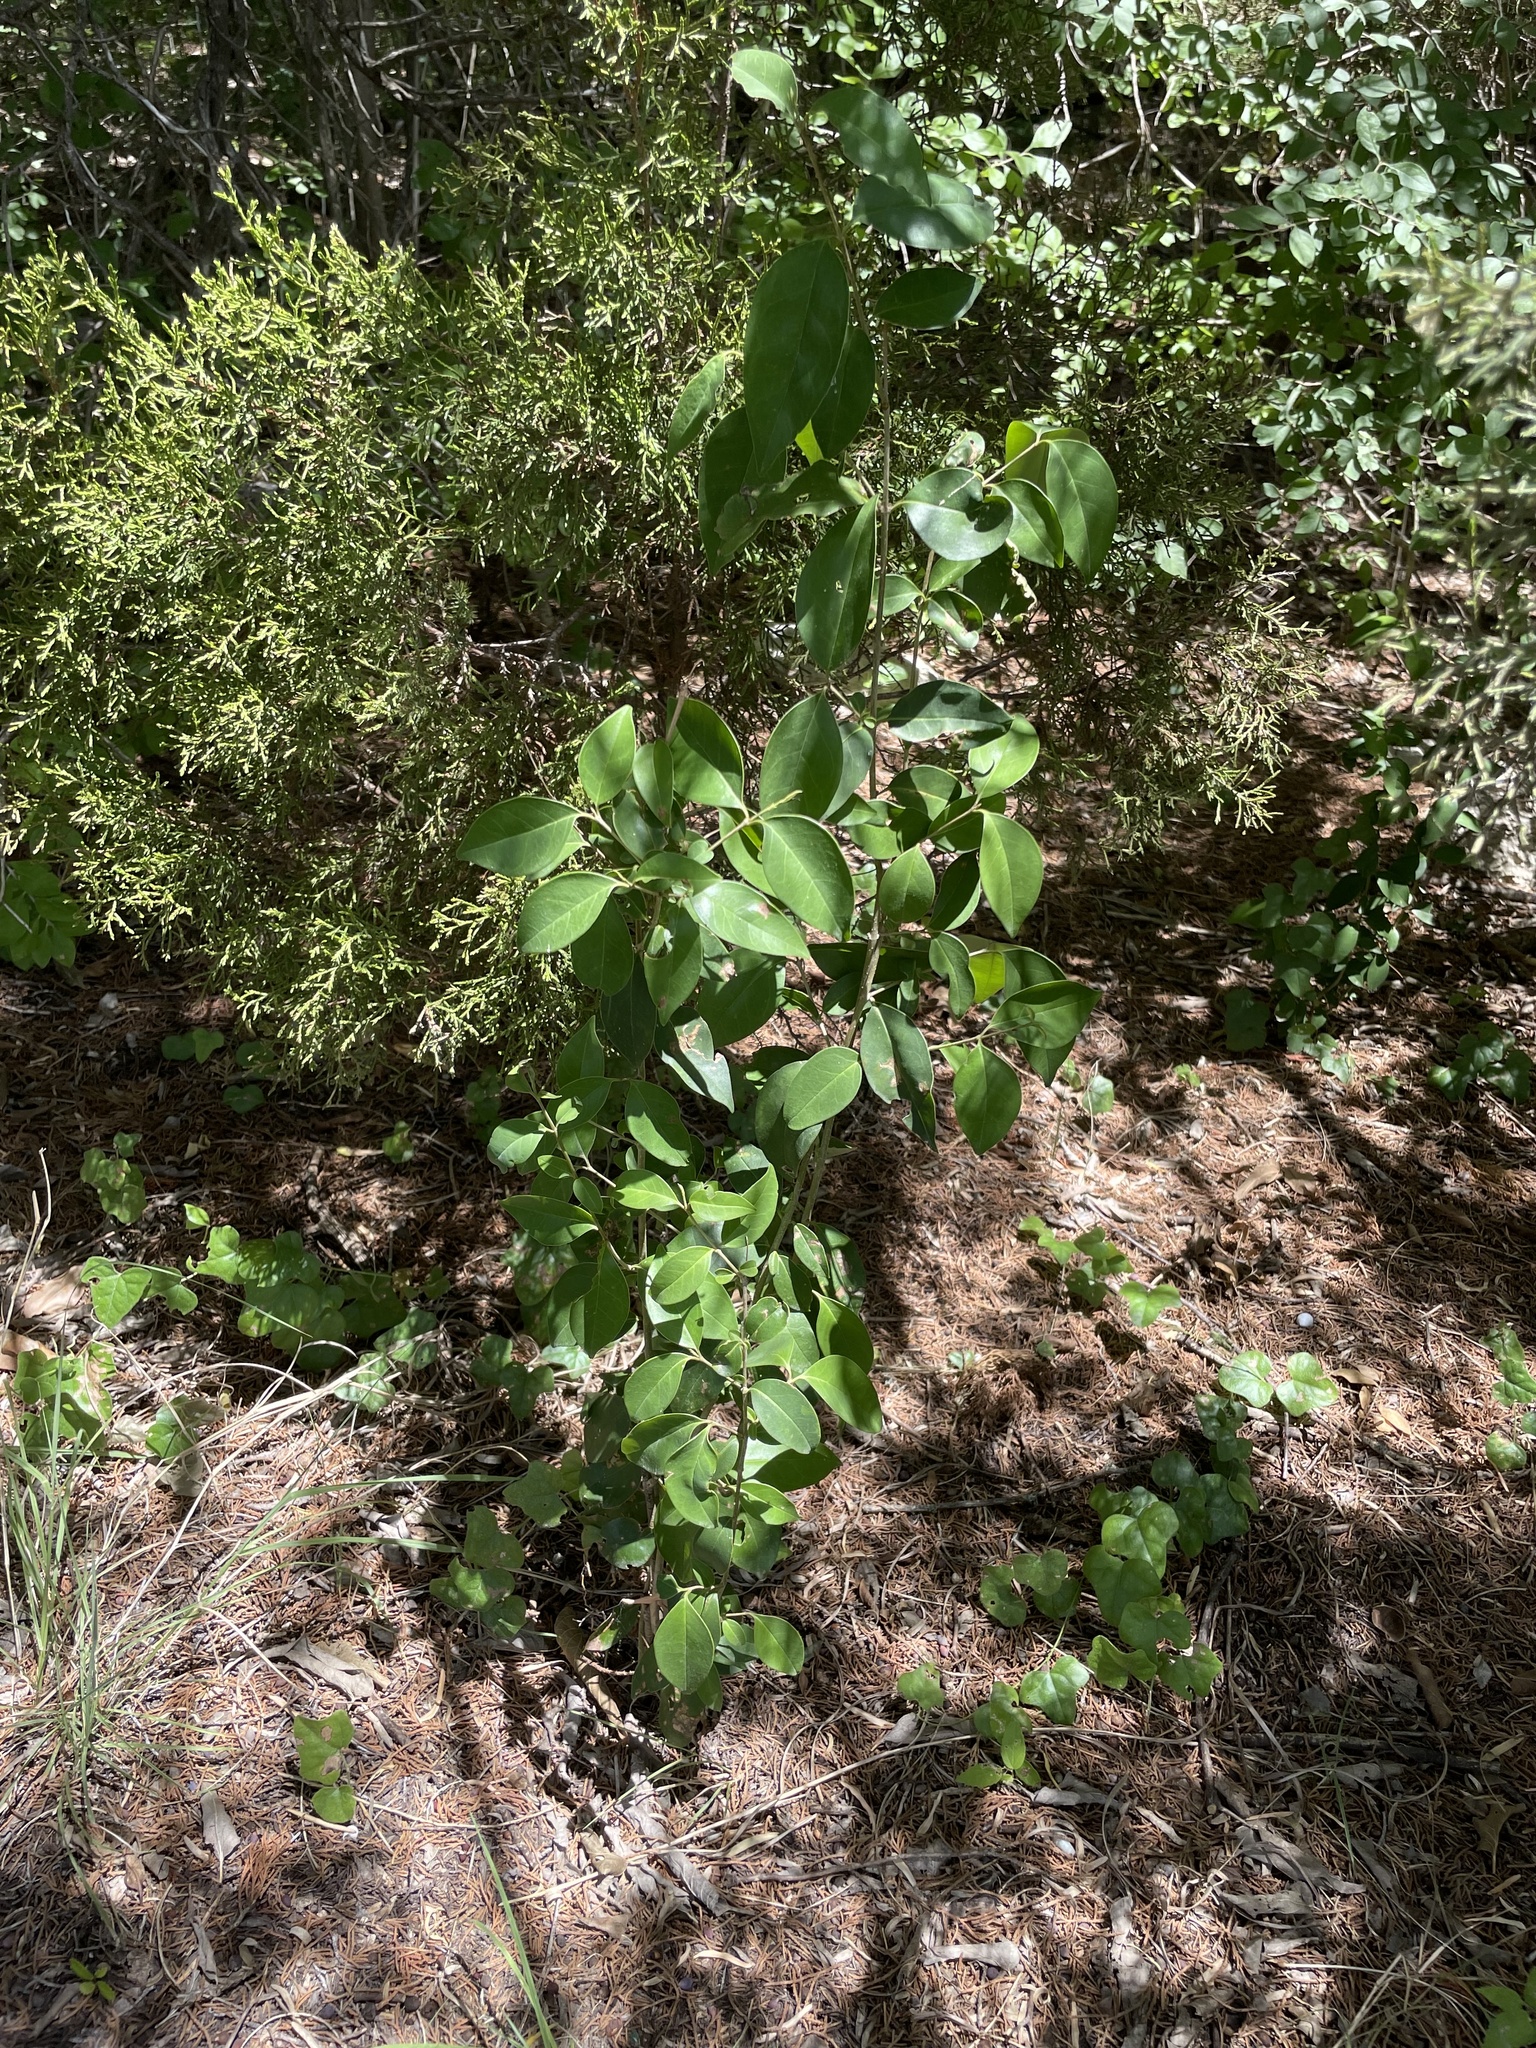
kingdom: Plantae
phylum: Tracheophyta
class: Magnoliopsida
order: Lamiales
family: Oleaceae
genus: Ligustrum
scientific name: Ligustrum lucidum
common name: Glossy privet
